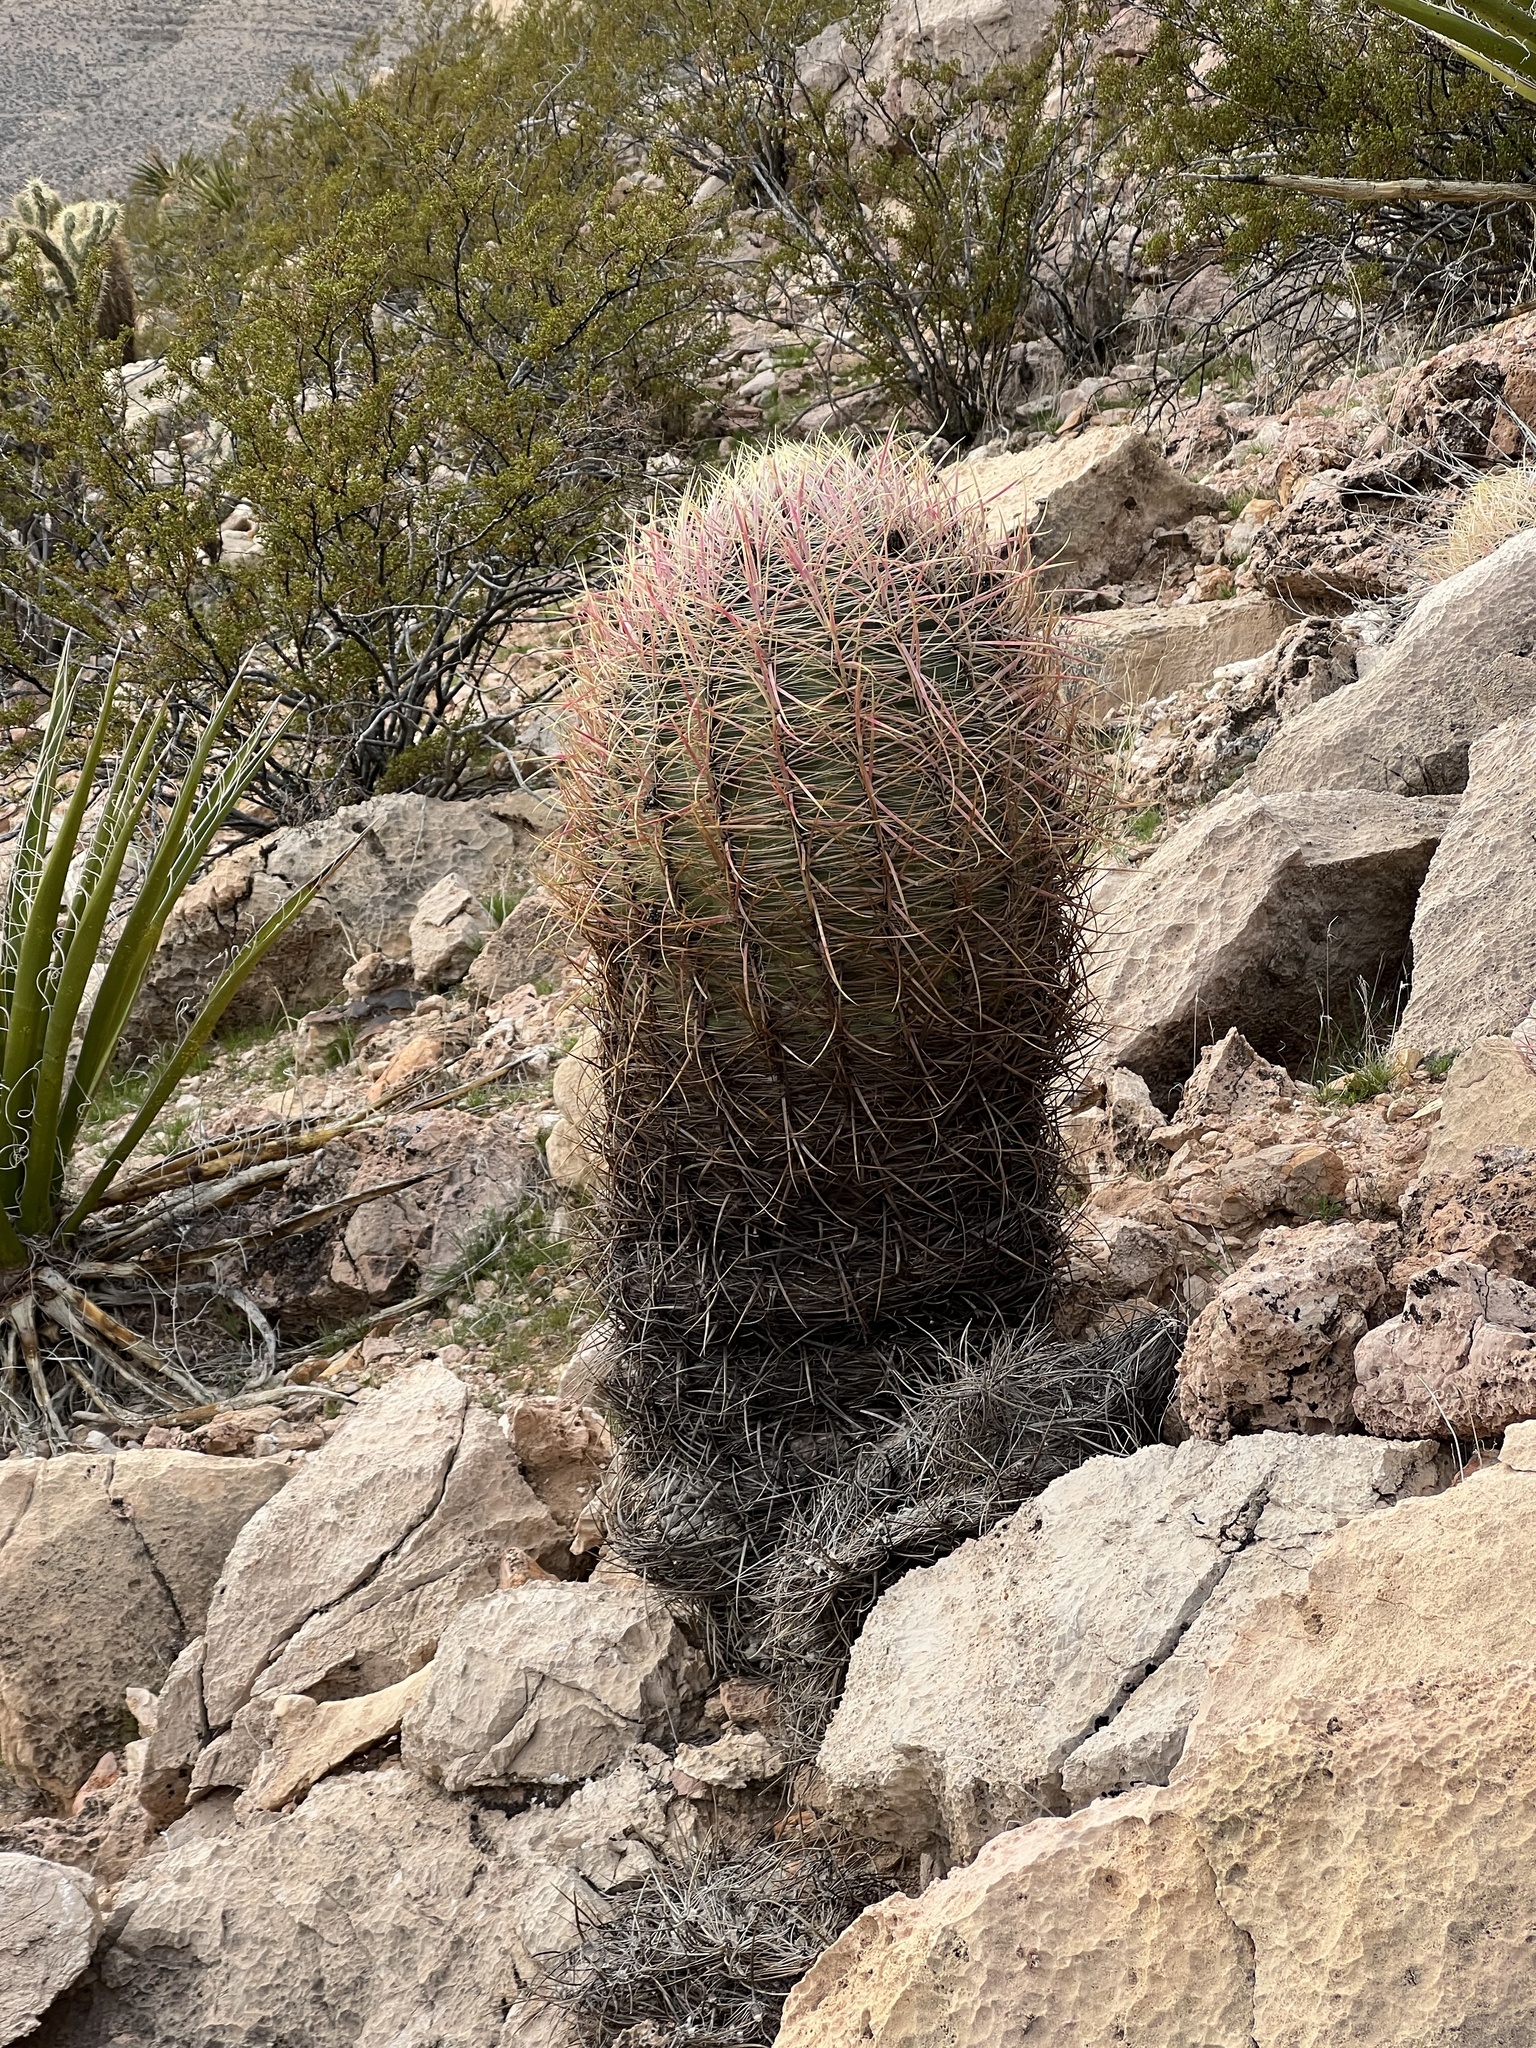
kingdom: Plantae
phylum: Tracheophyta
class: Magnoliopsida
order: Caryophyllales
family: Cactaceae
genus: Ferocactus
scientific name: Ferocactus cylindraceus
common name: California barrel cactus
